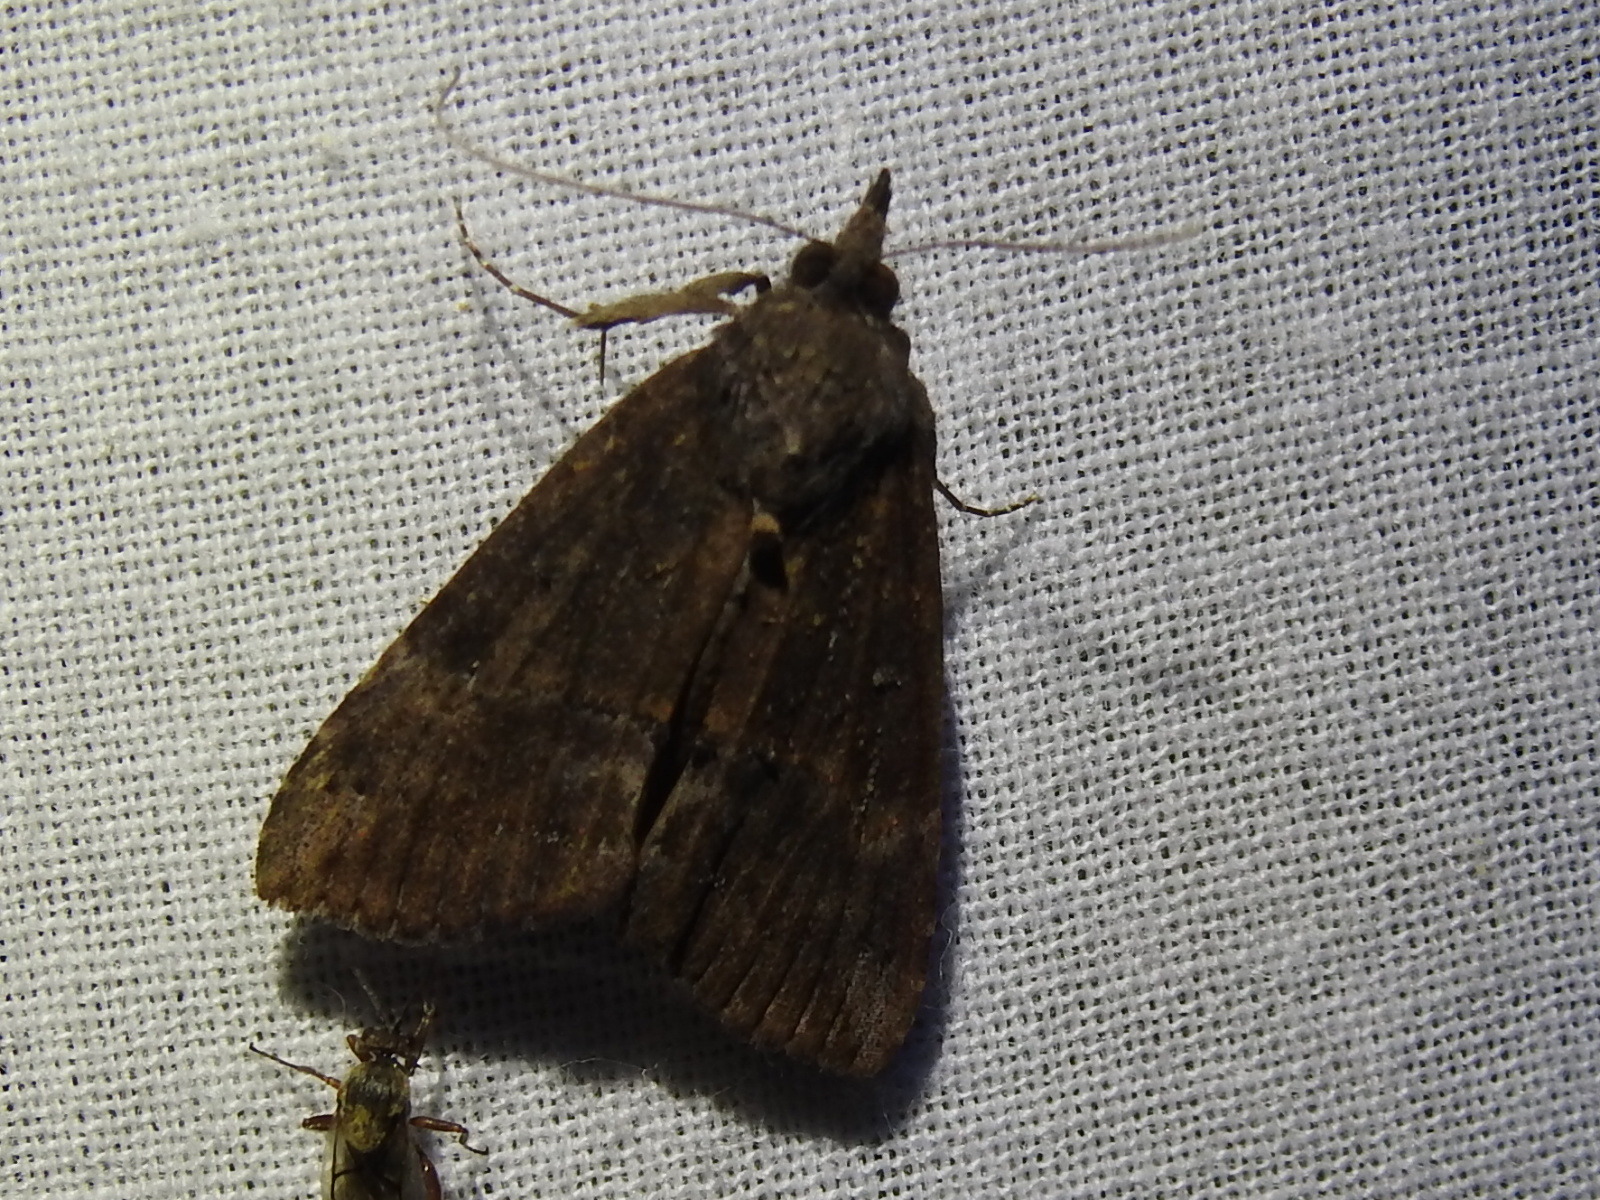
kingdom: Animalia
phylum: Arthropoda
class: Insecta
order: Lepidoptera
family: Erebidae
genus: Hypena
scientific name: Hypena scabra
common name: Green cloverworm
